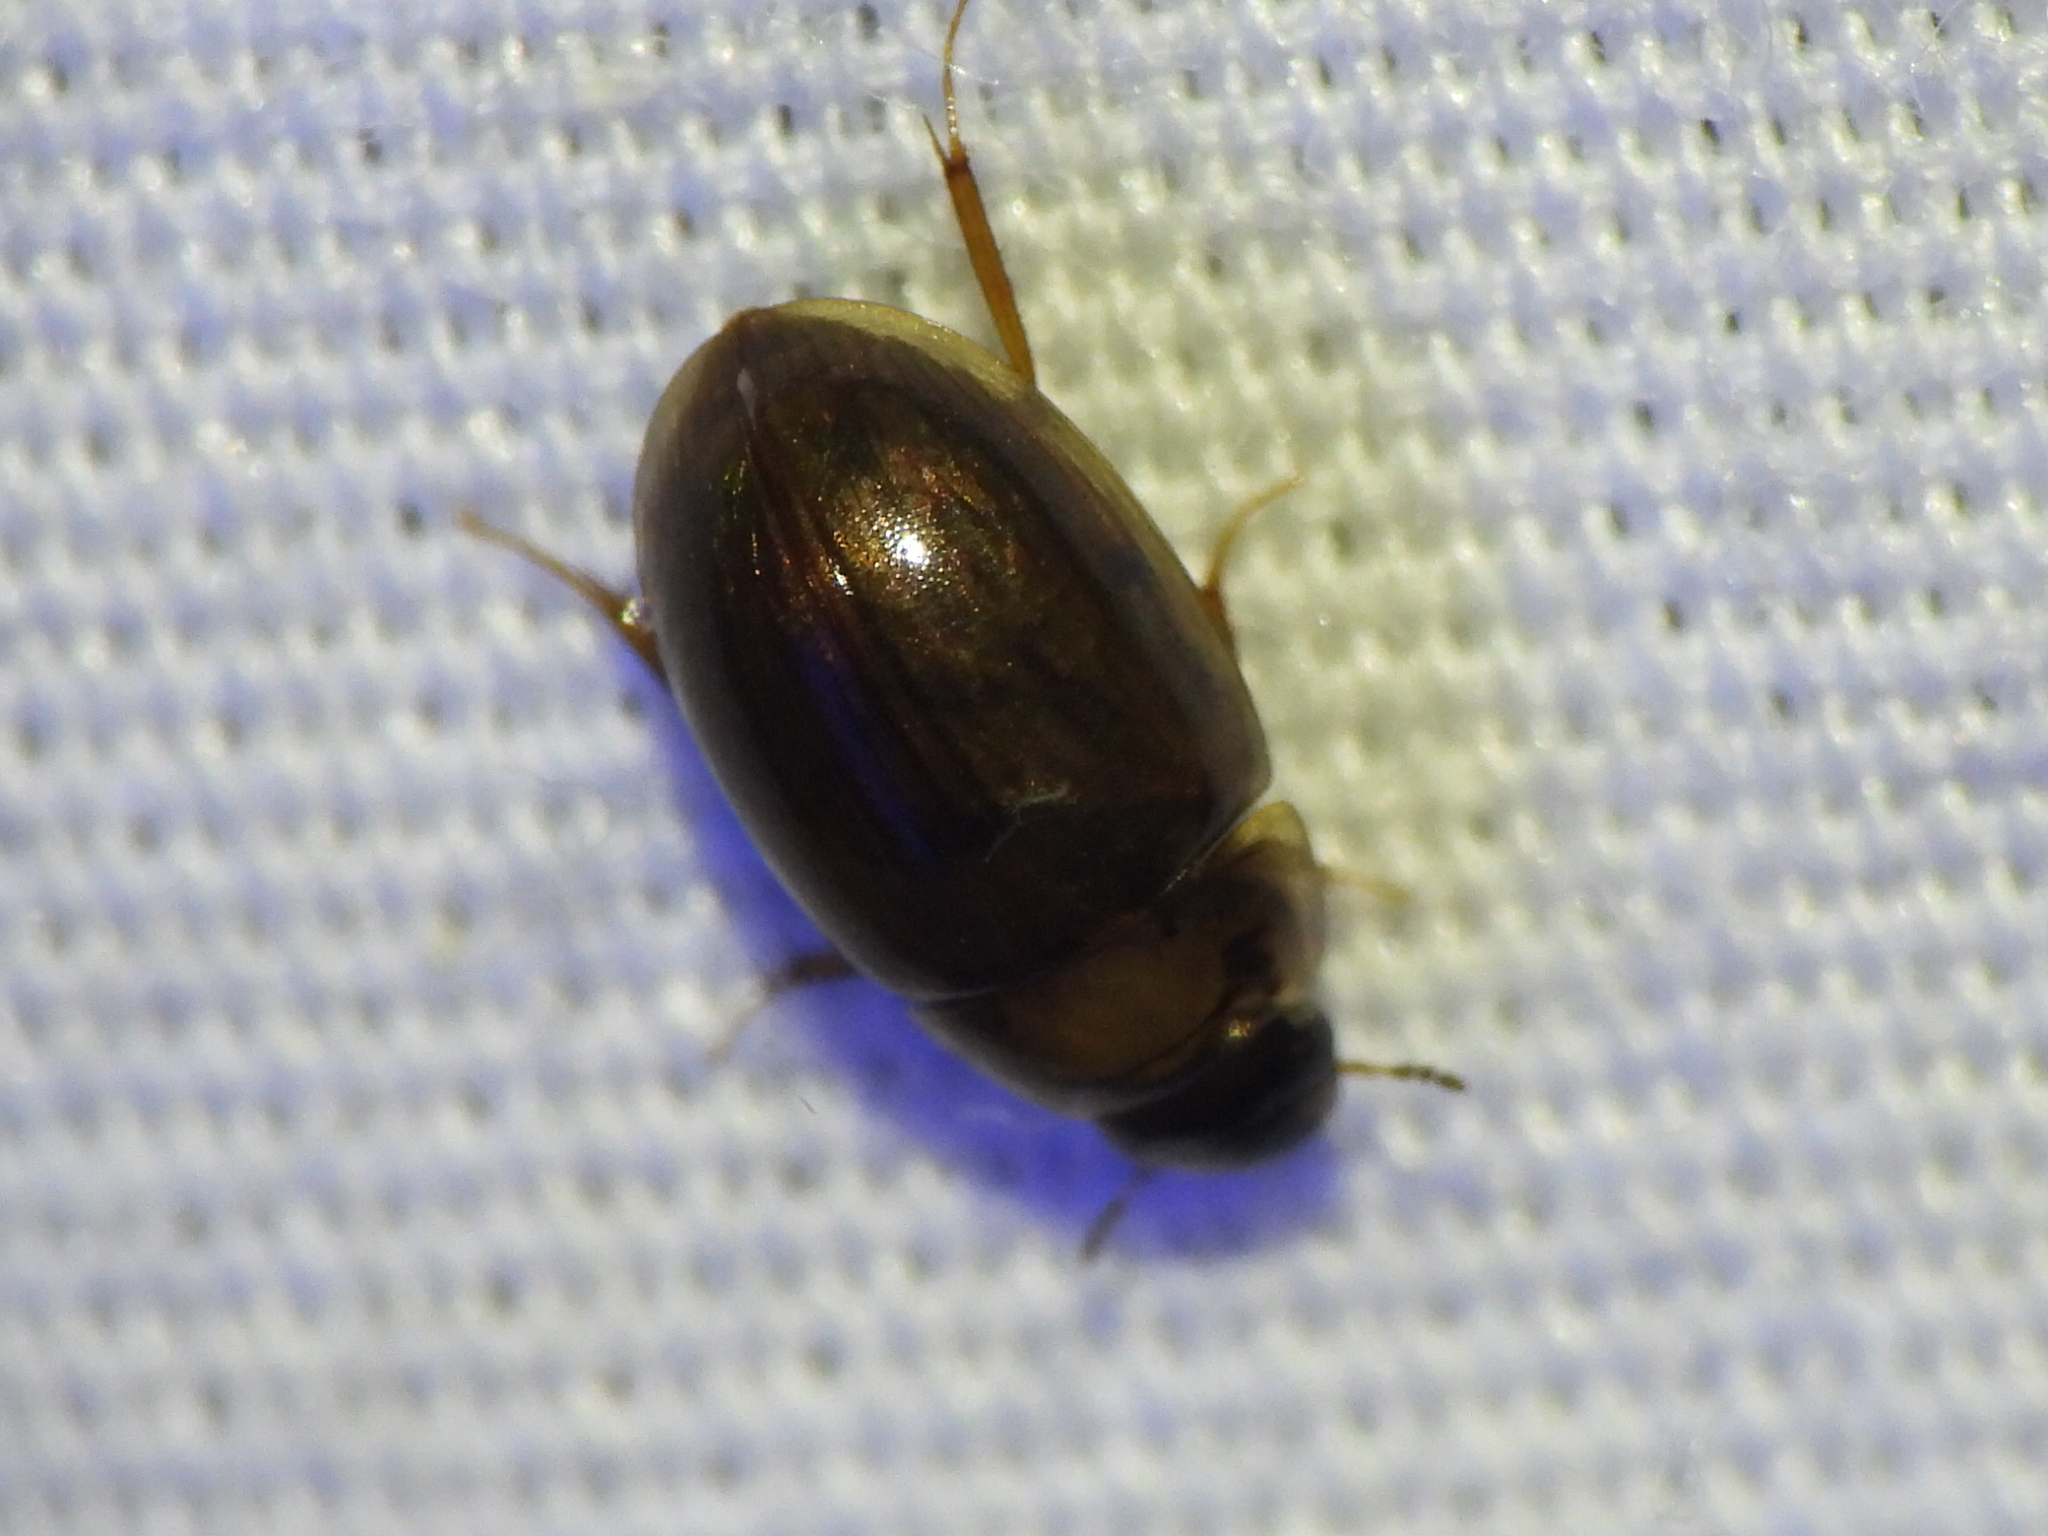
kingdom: Animalia
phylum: Arthropoda
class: Insecta
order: Coleoptera
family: Hydrophilidae
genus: Enochrus
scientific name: Enochrus
